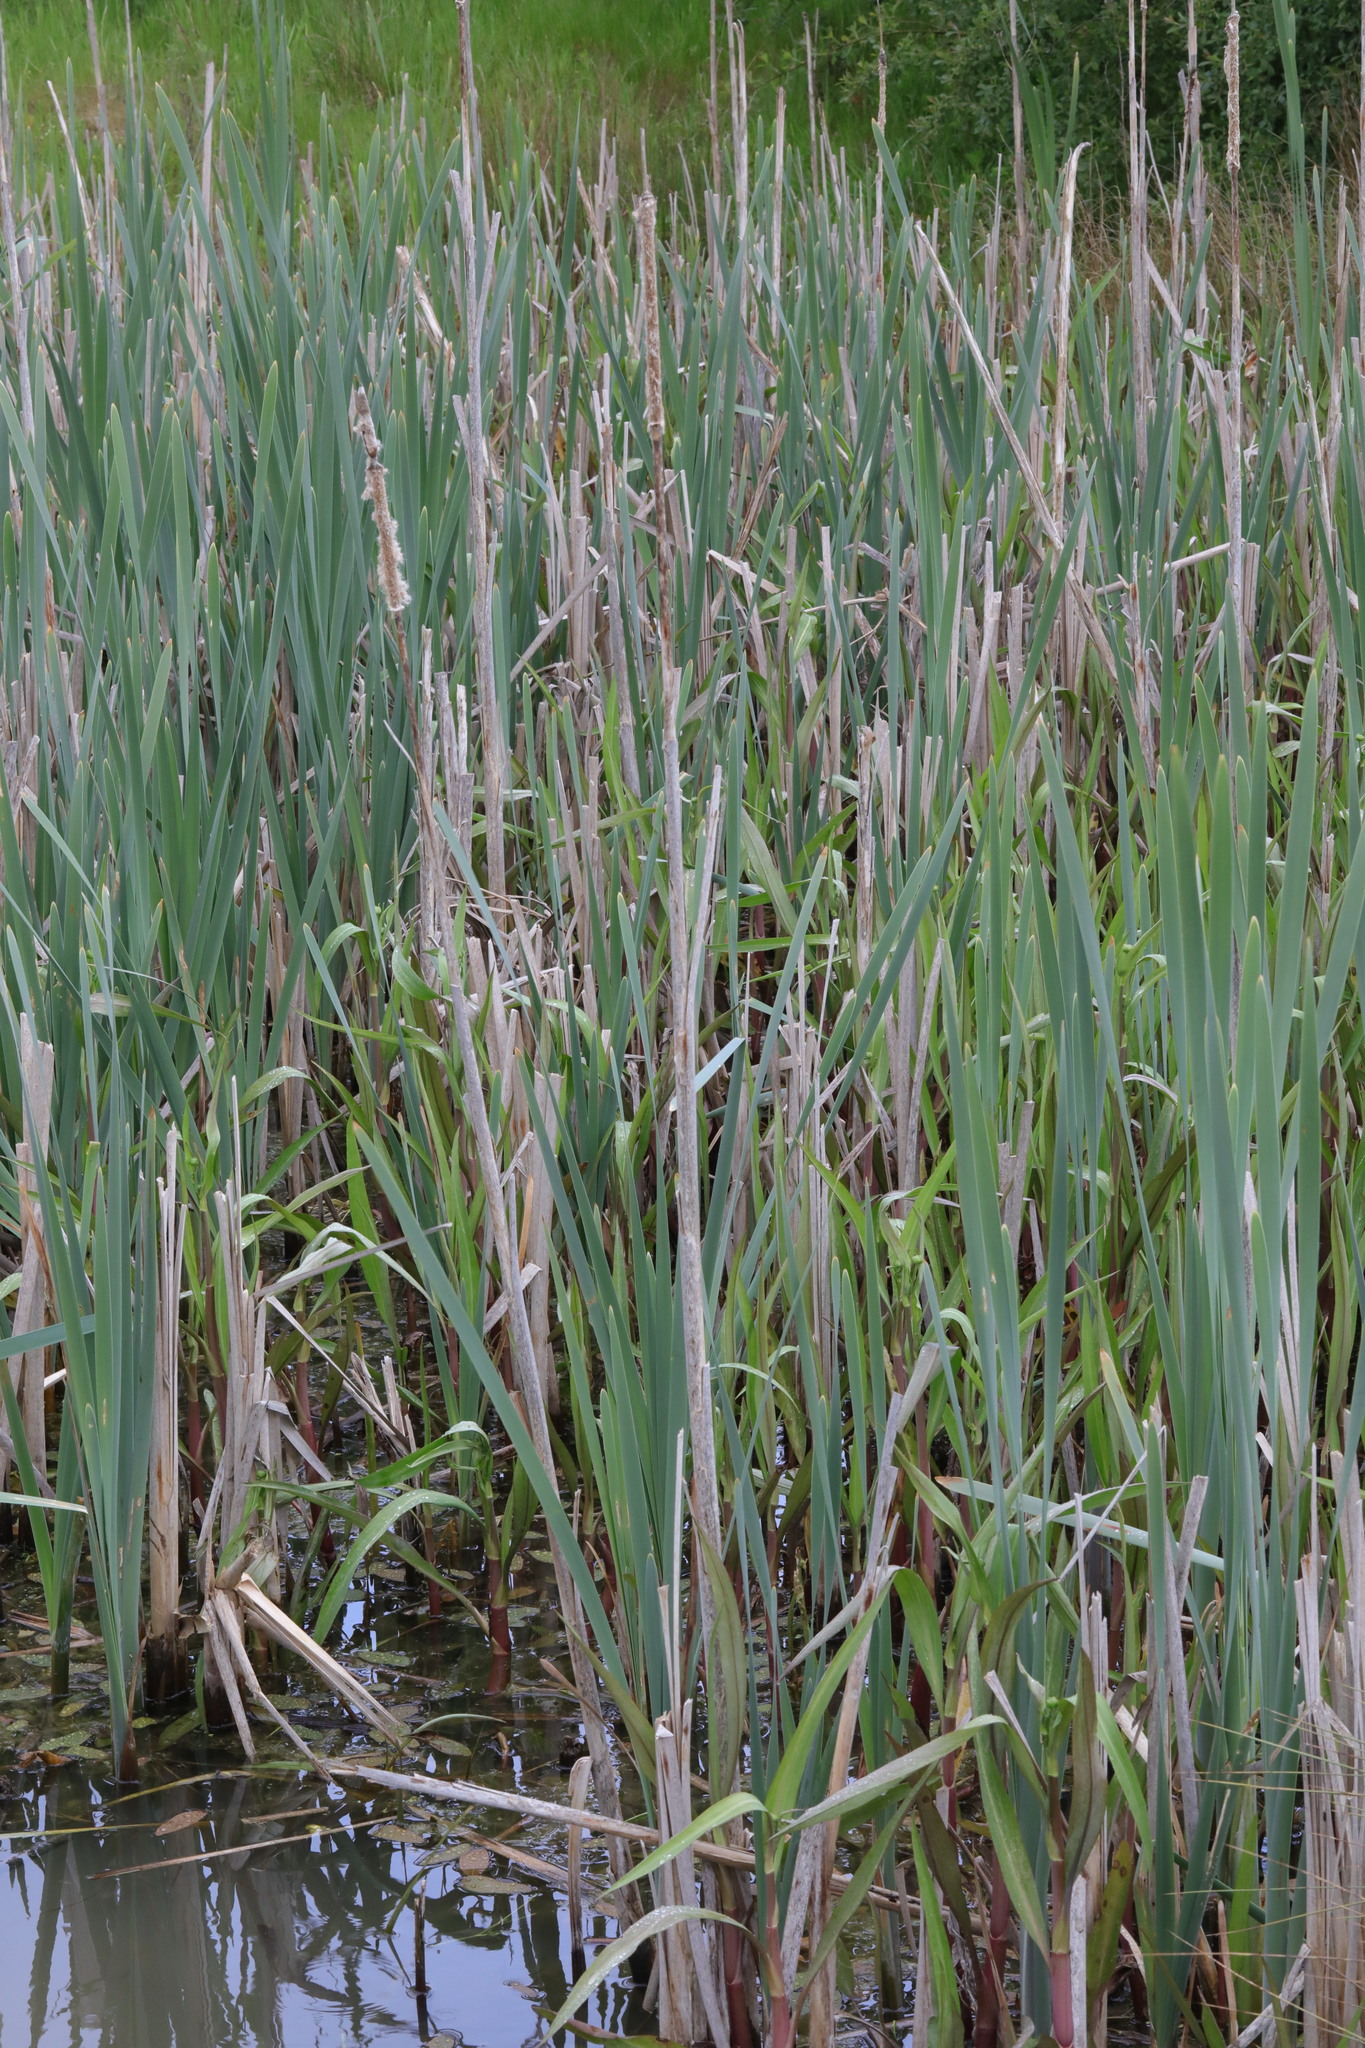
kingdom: Plantae
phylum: Tracheophyta
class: Liliopsida
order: Poales
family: Typhaceae
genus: Typha
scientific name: Typha latifolia
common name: Broadleaf cattail
